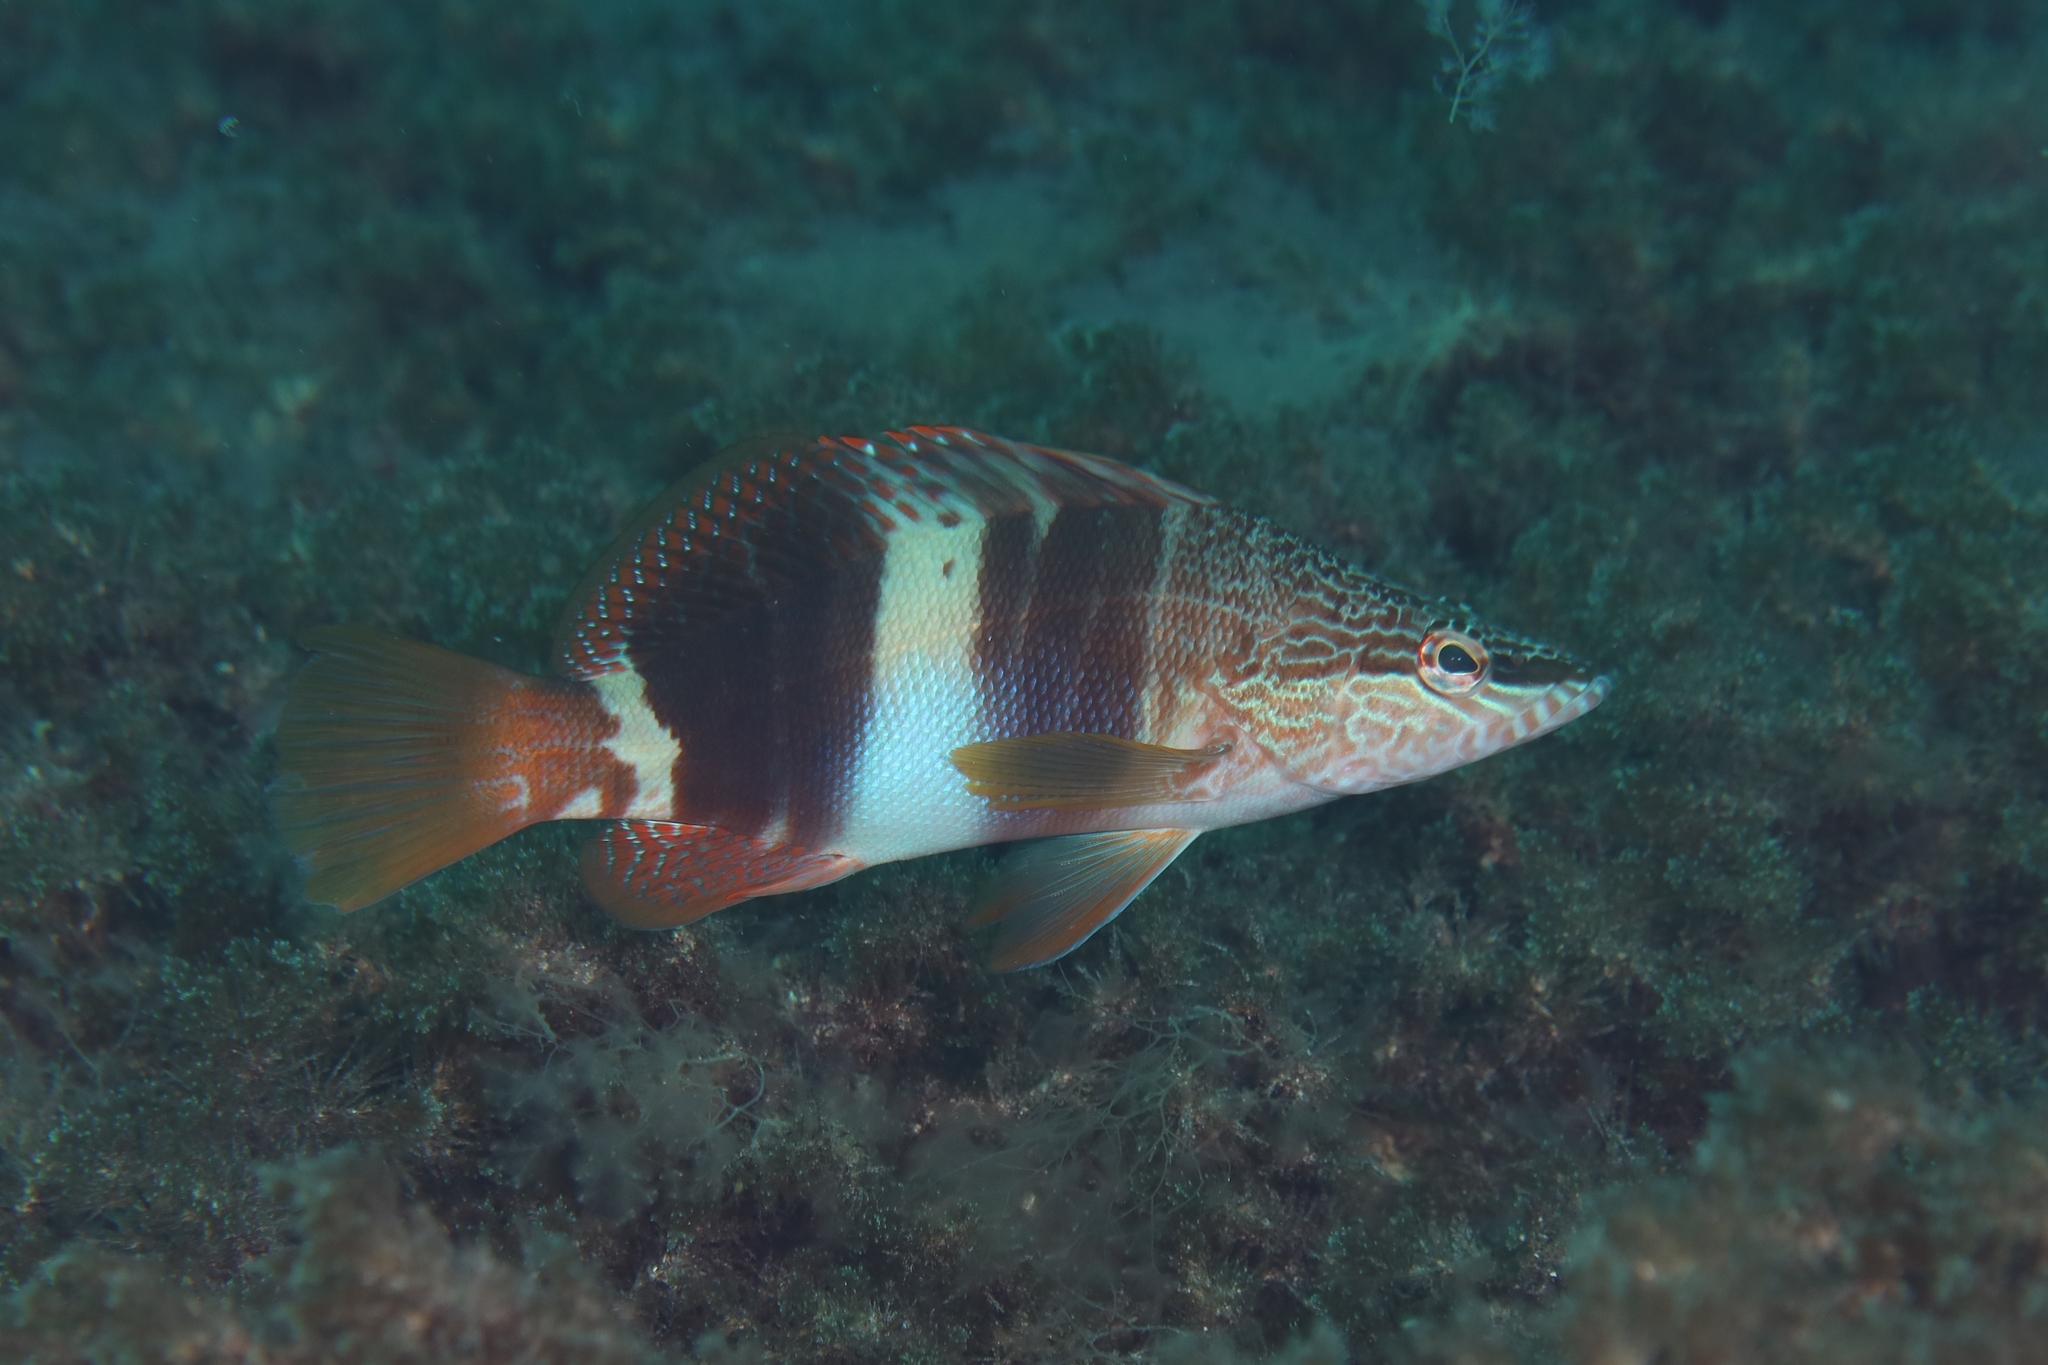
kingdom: Animalia
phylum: Chordata
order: Perciformes
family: Serranidae
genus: Serranus
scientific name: Serranus scriba
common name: Painted comber
